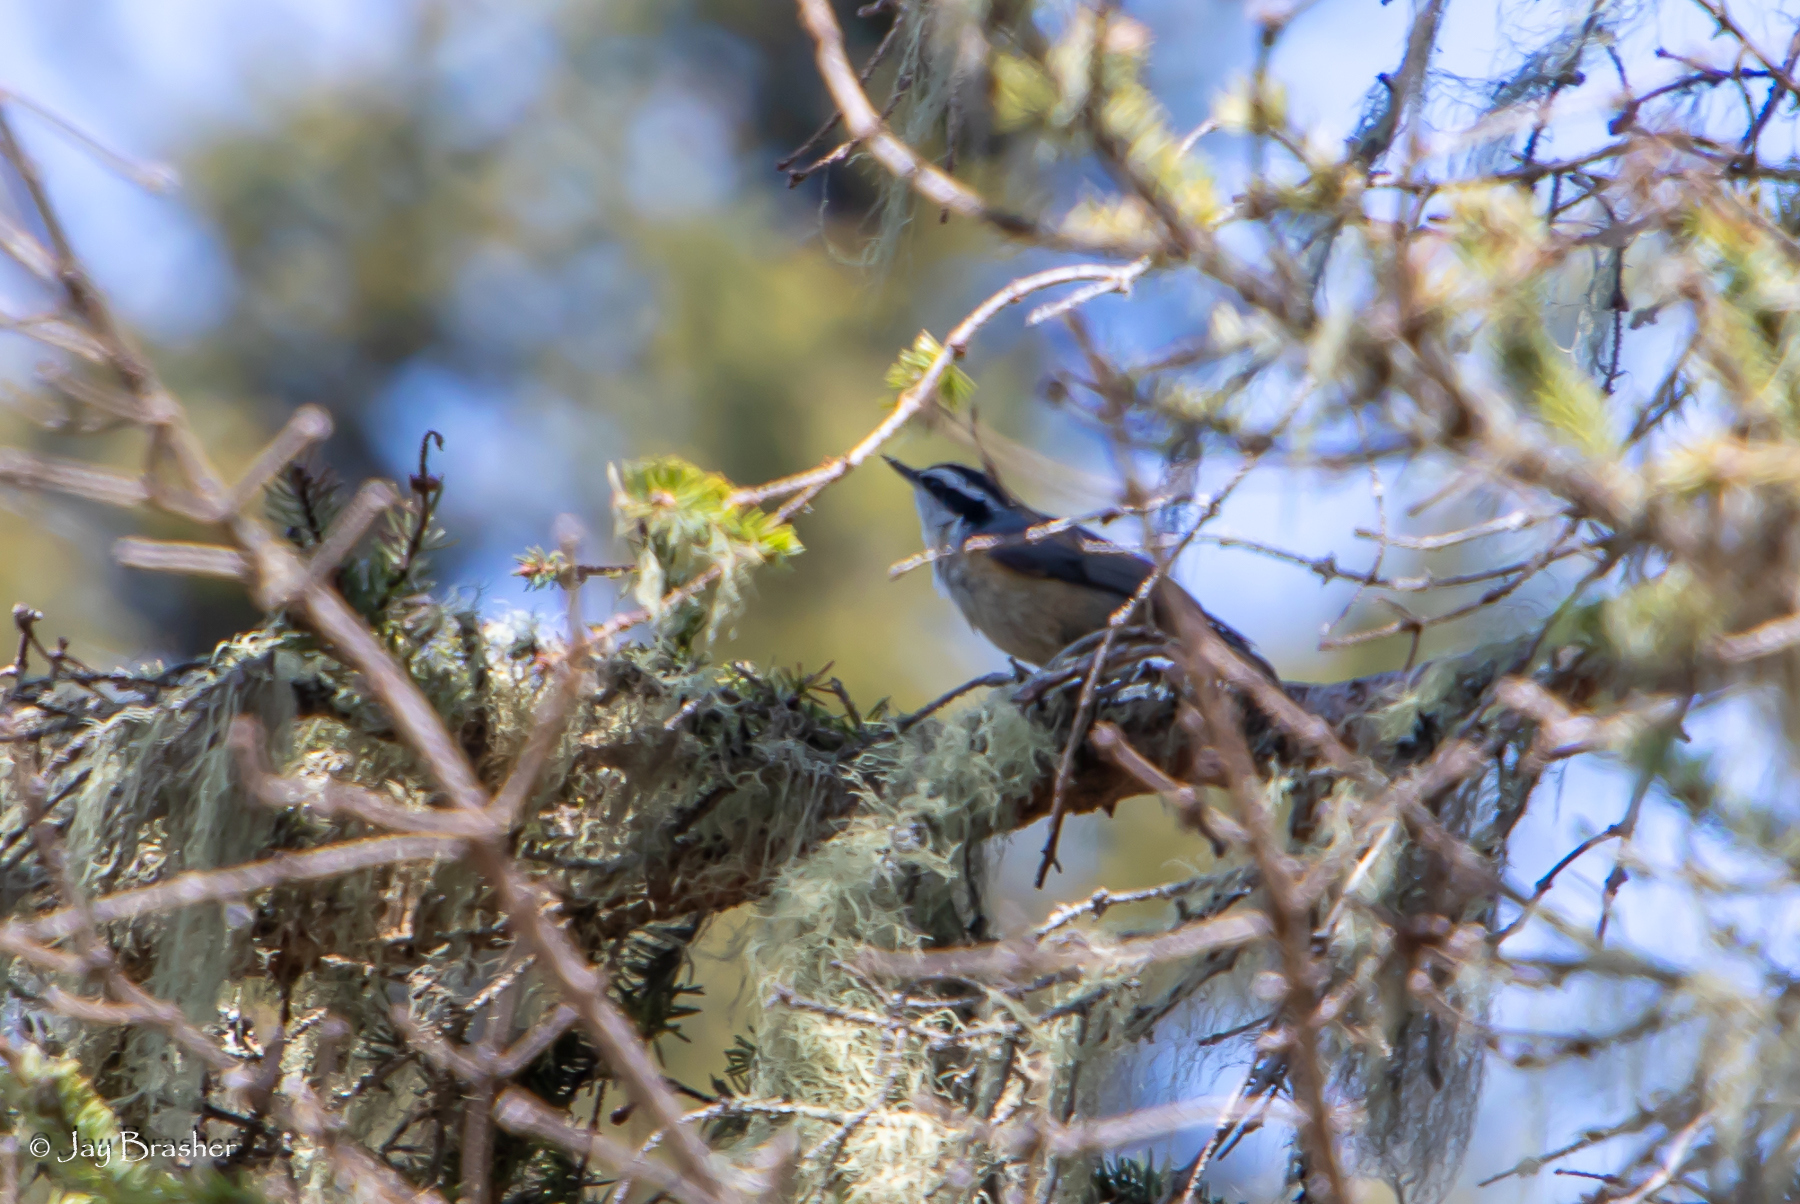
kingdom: Animalia
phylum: Chordata
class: Aves
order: Passeriformes
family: Sittidae
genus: Sitta
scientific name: Sitta canadensis
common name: Red-breasted nuthatch
